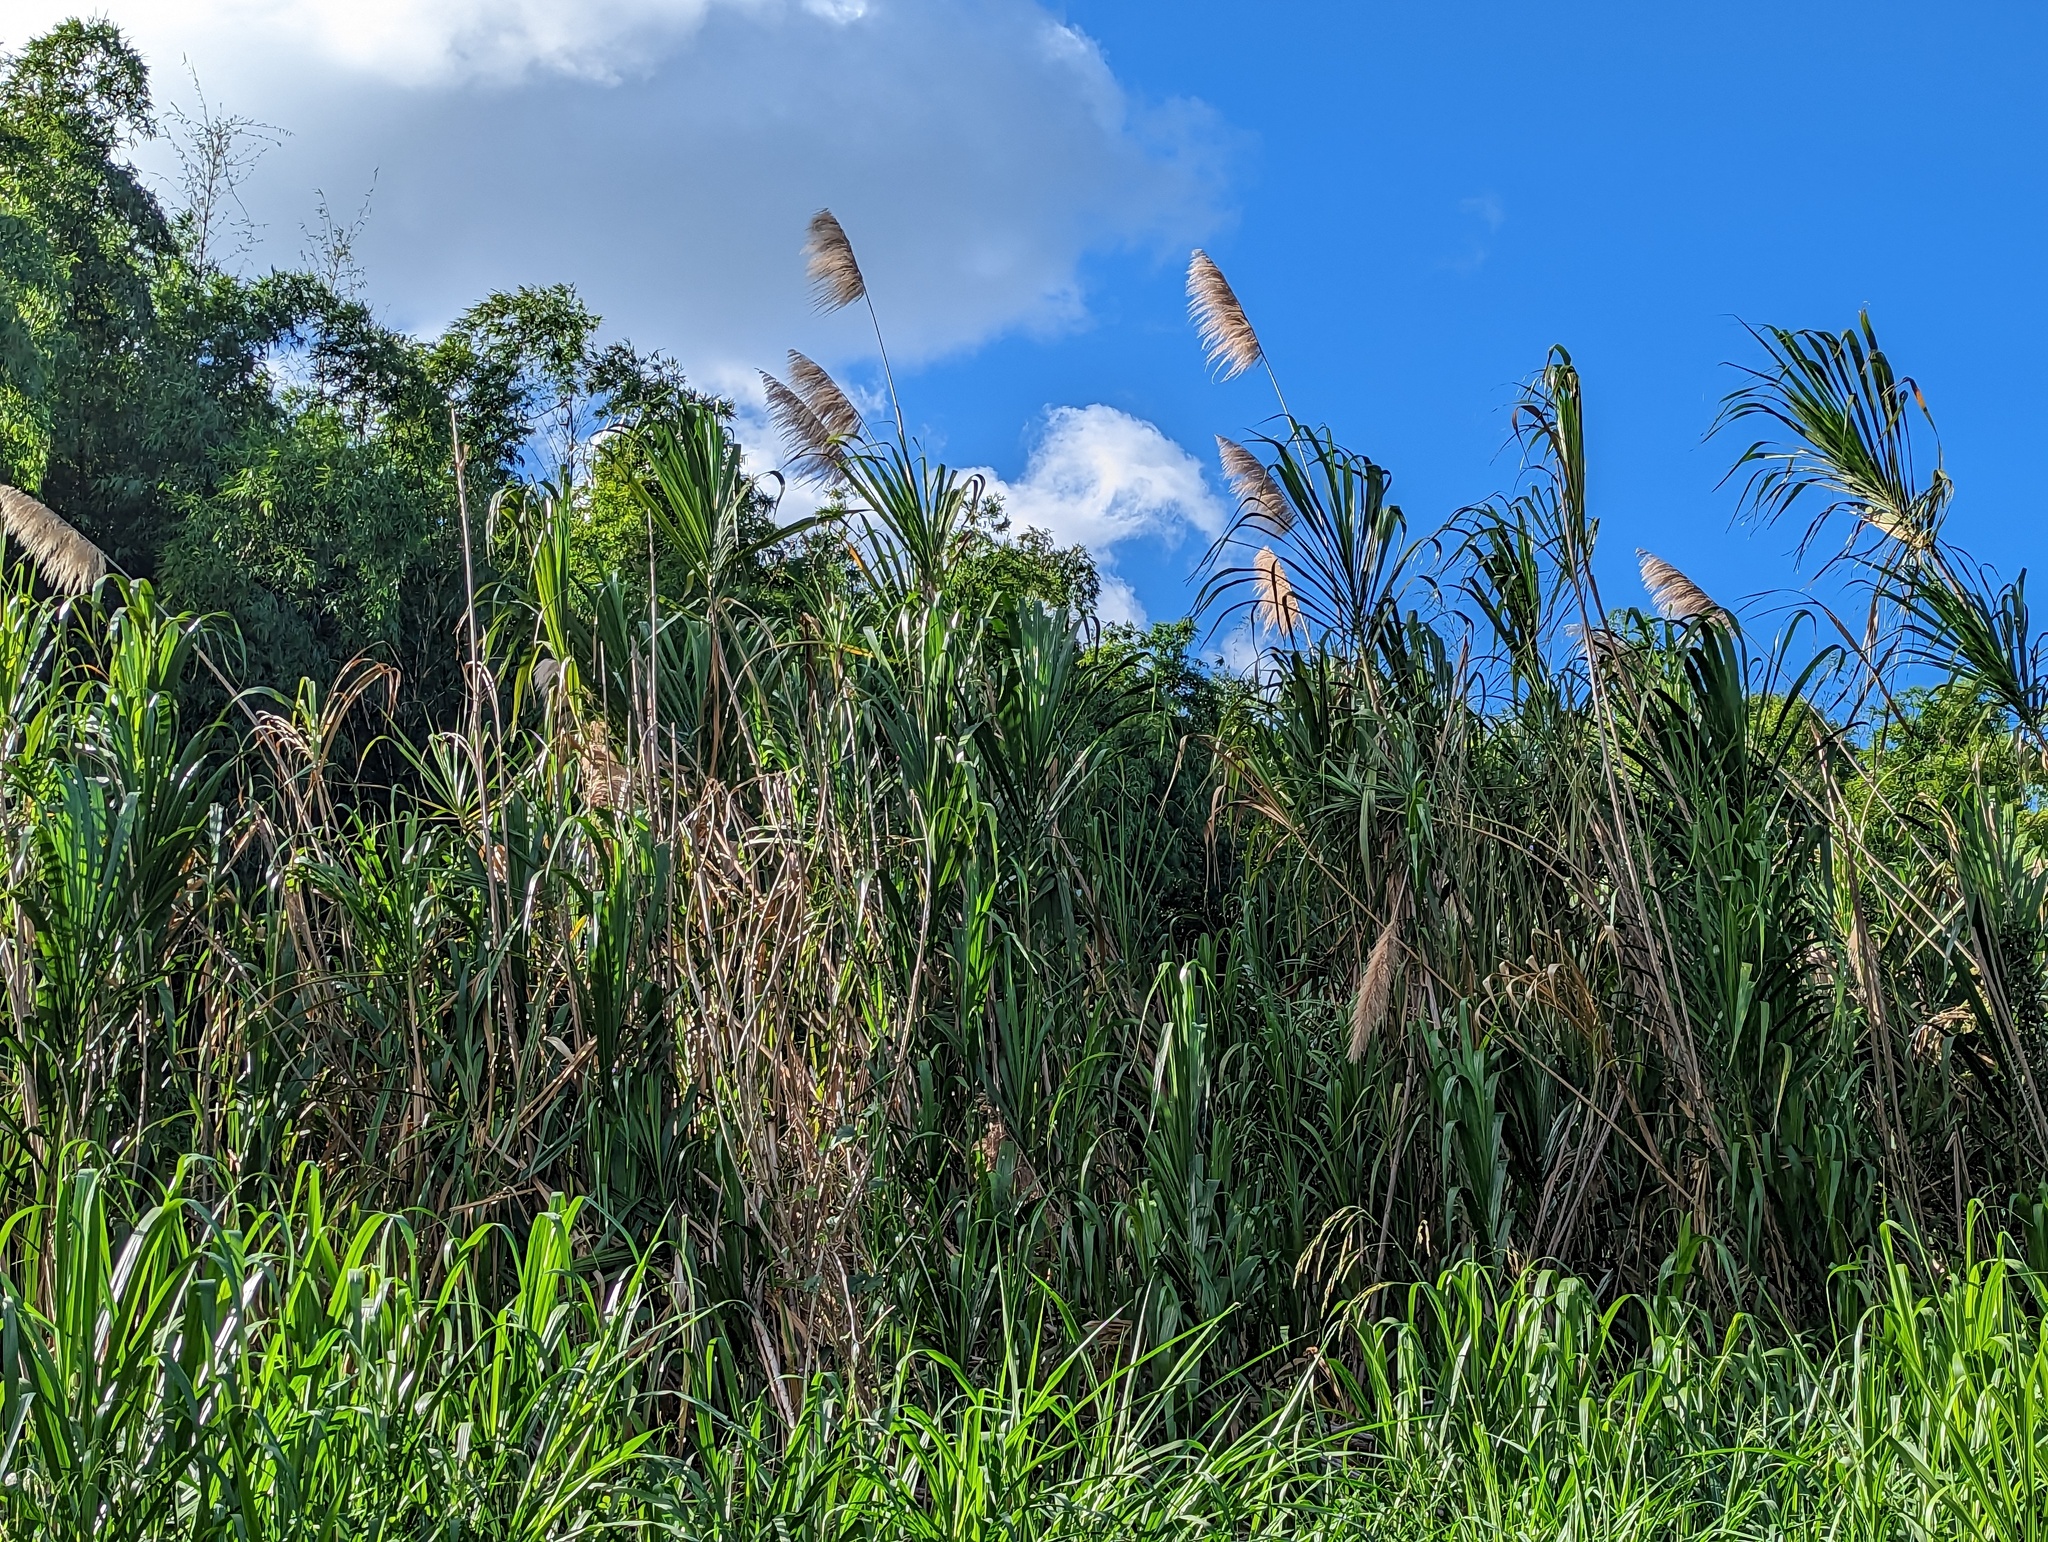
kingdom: Plantae
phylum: Tracheophyta
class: Liliopsida
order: Poales
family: Poaceae
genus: Gynerium
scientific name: Gynerium sagittatum
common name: Wild cane
